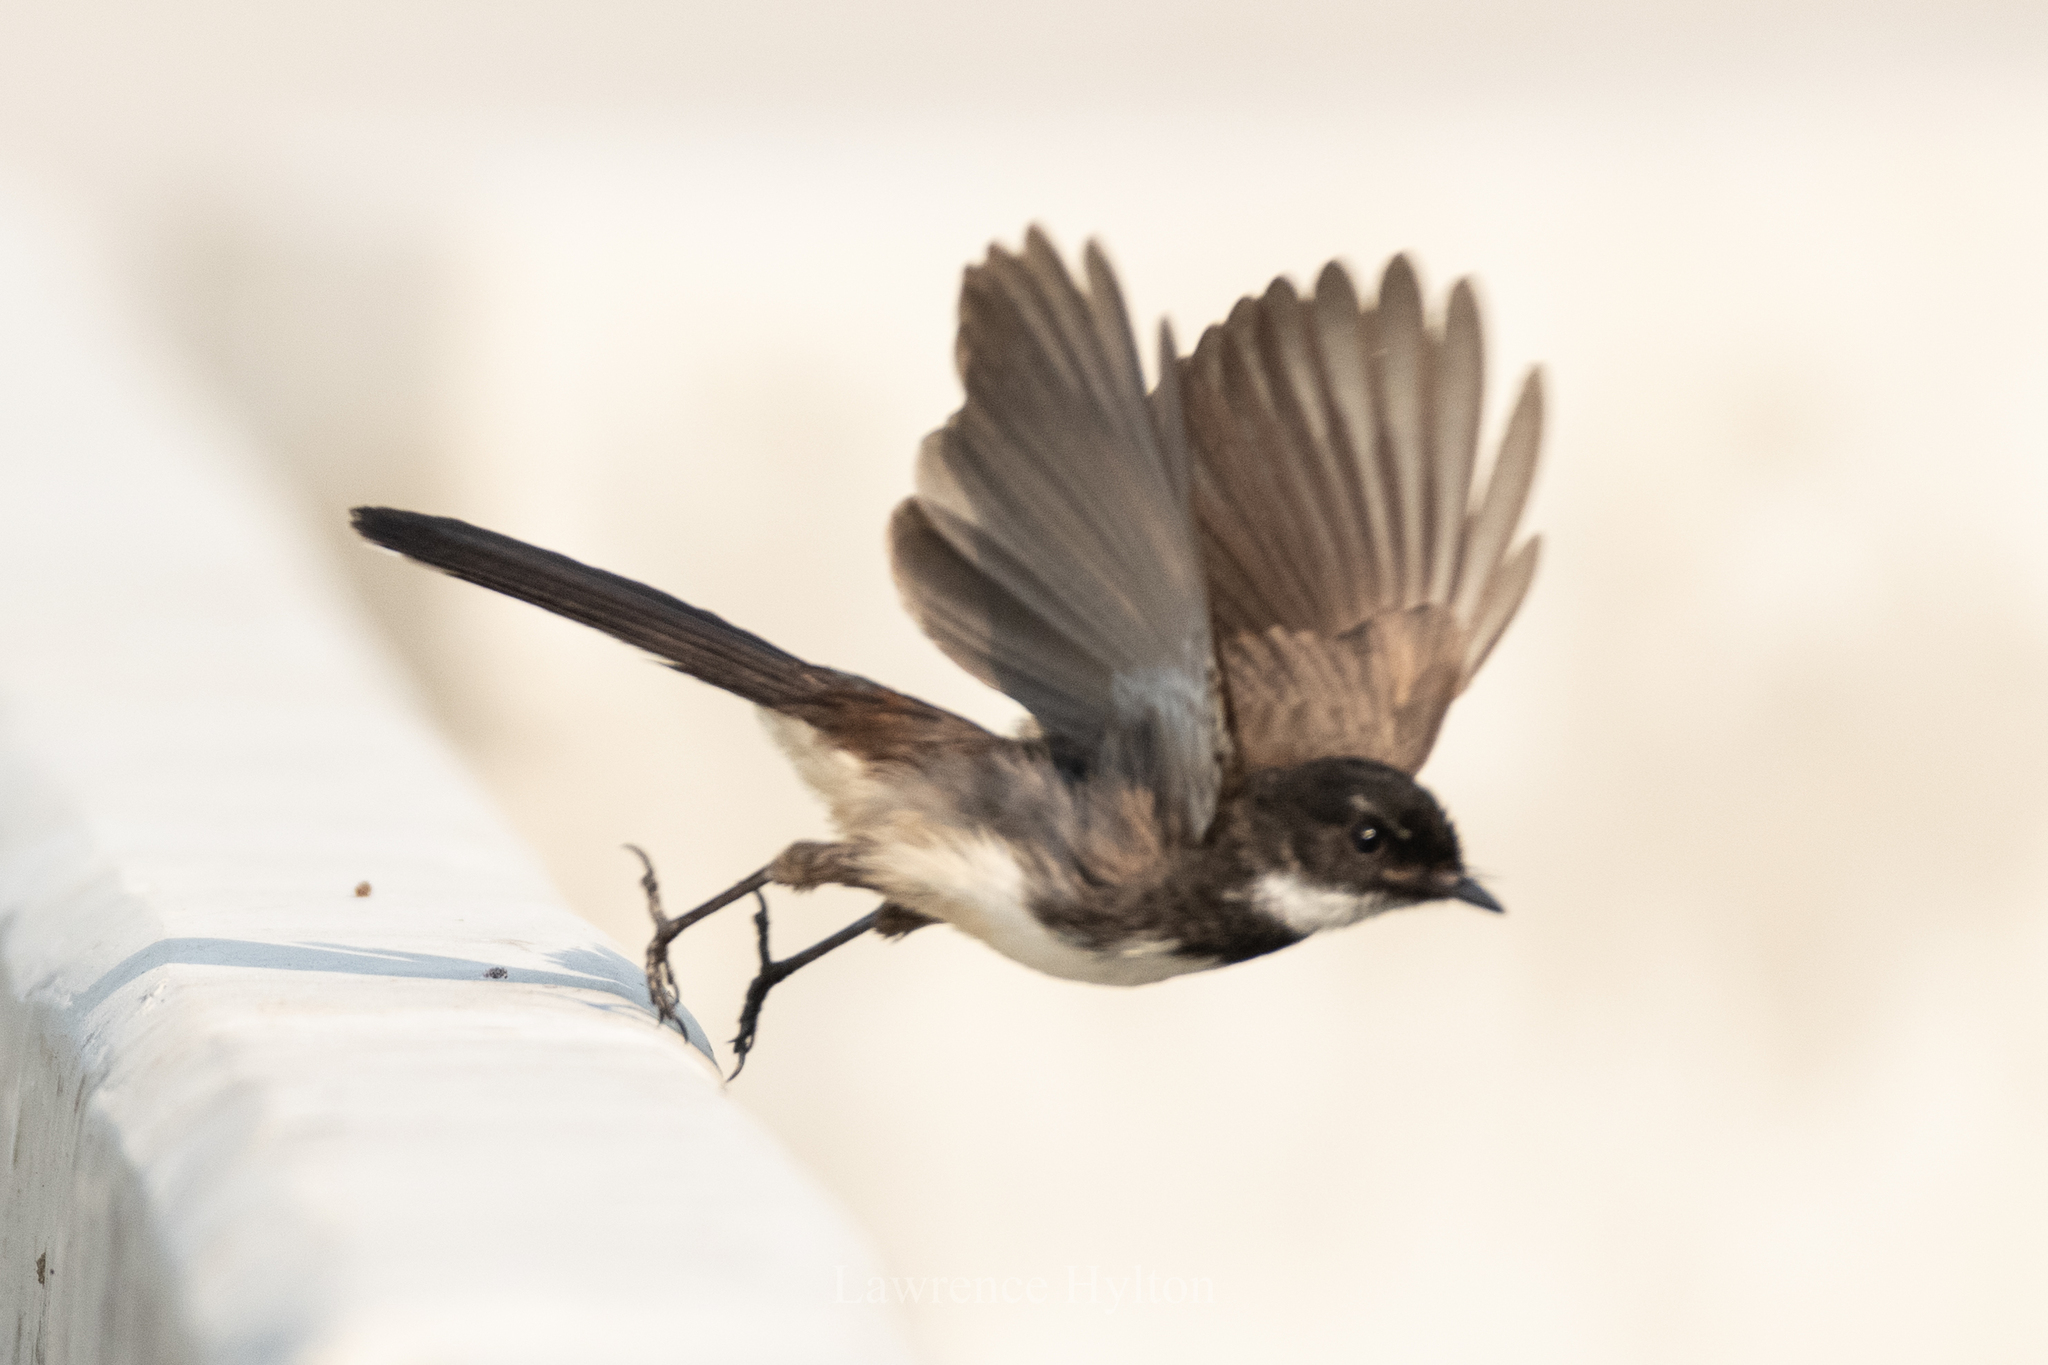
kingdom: Animalia
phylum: Chordata
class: Aves
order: Passeriformes
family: Rhipiduridae
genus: Rhipidura
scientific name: Rhipidura javanica
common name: Pied fantail
